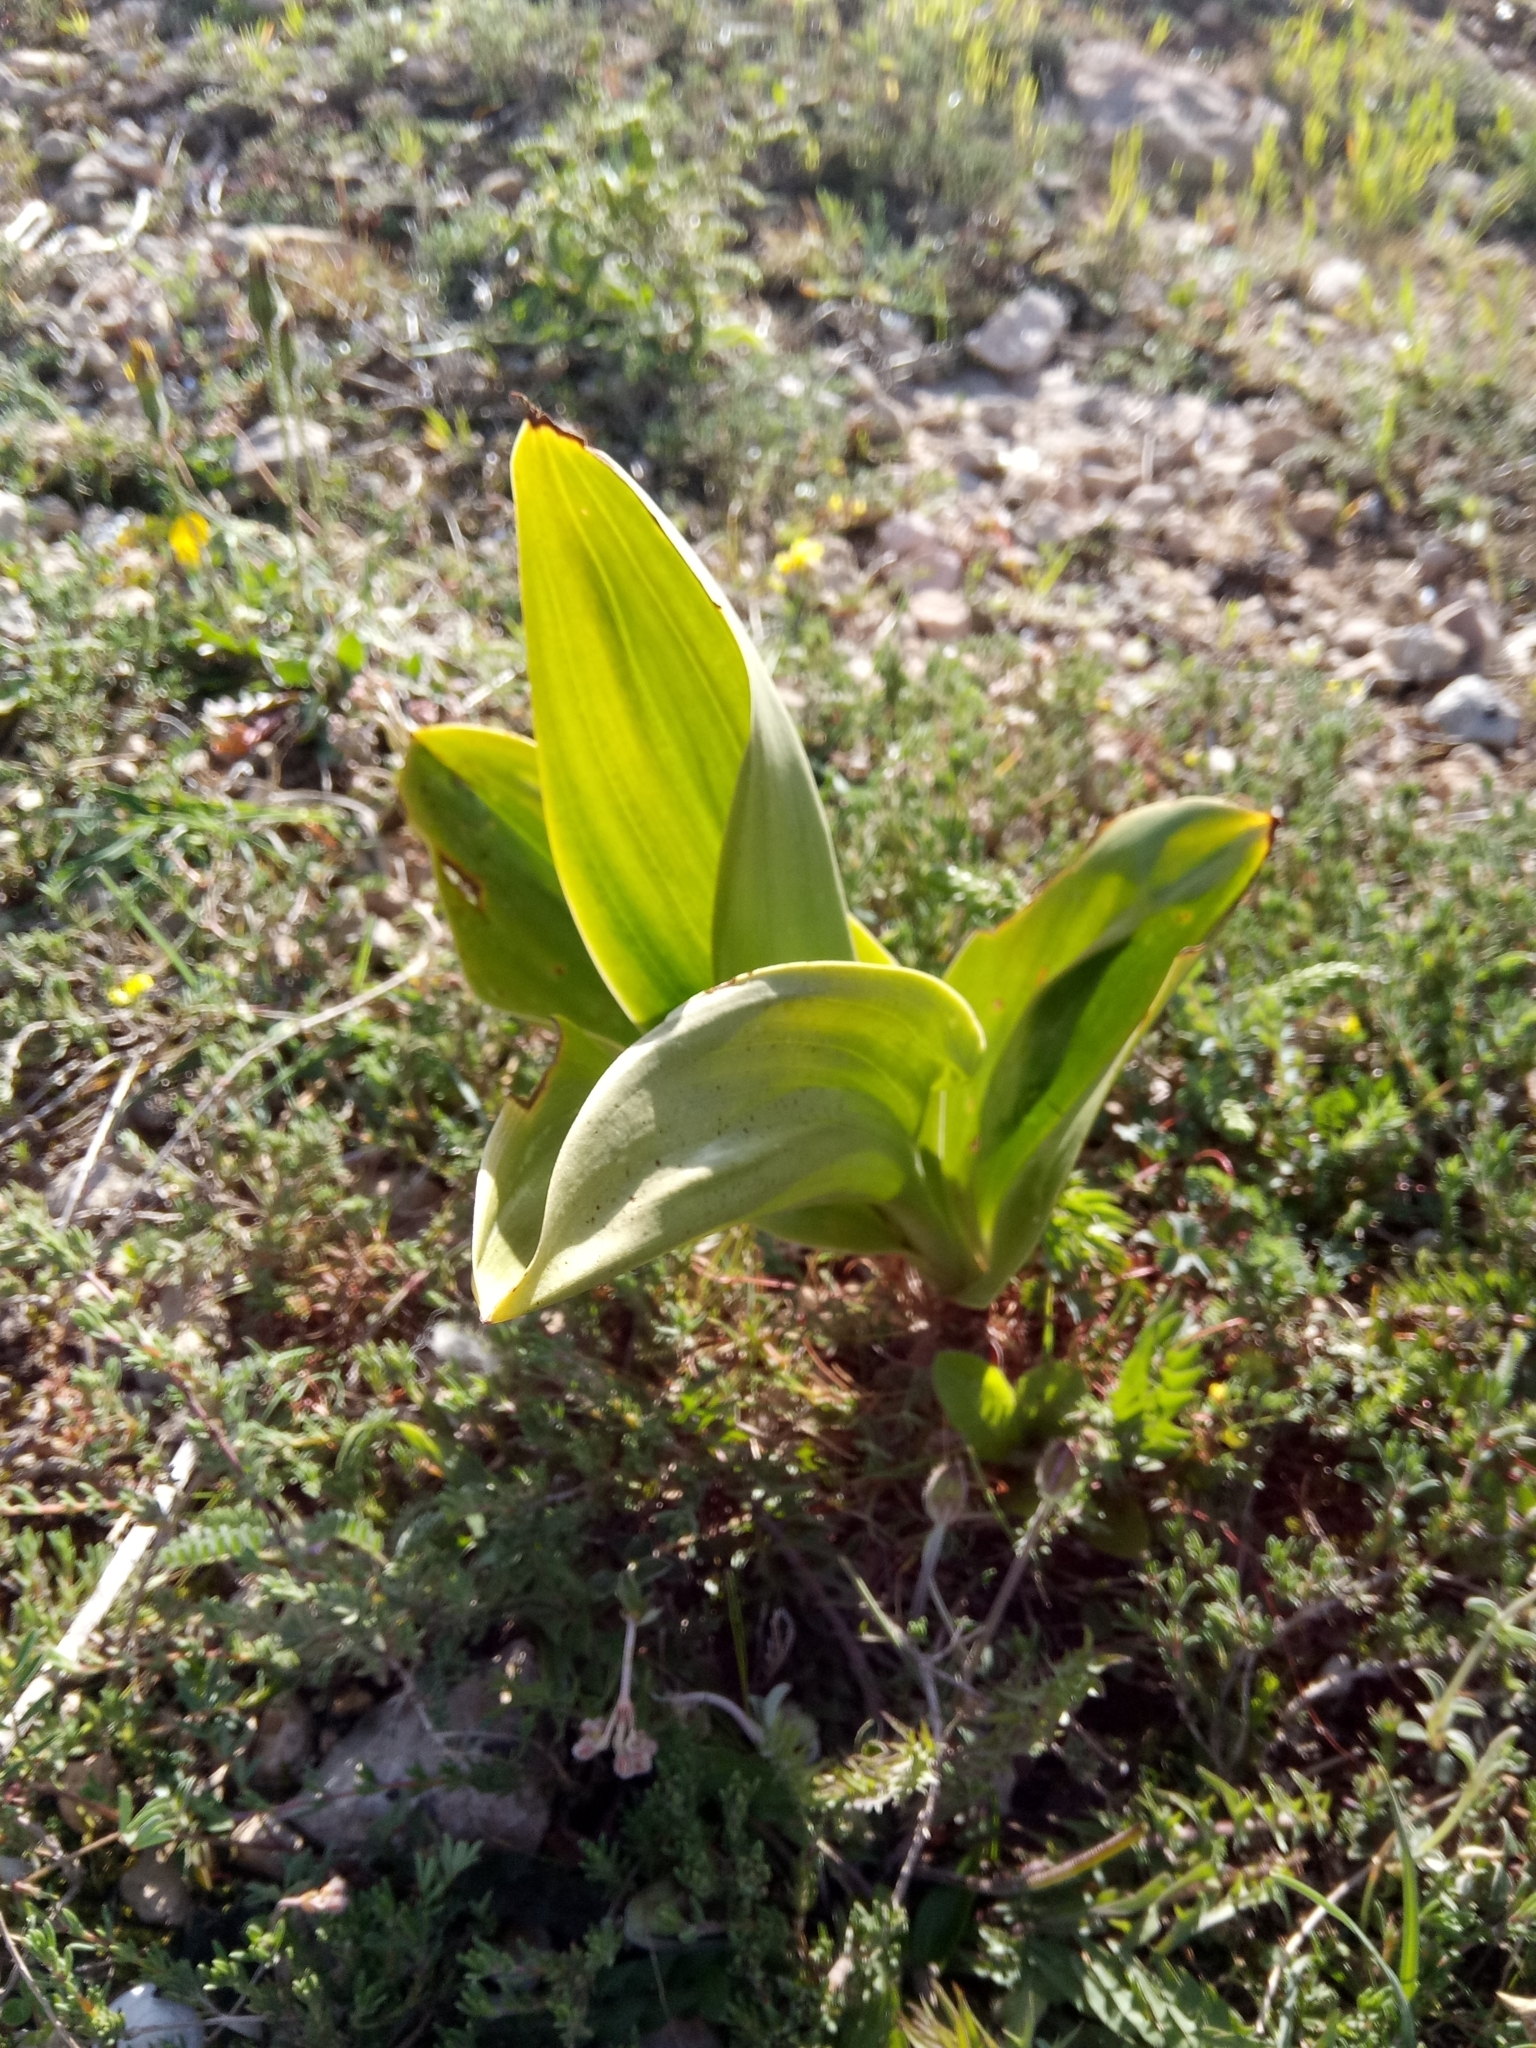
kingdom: Plantae
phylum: Tracheophyta
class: Liliopsida
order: Asparagales
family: Orchidaceae
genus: Himantoglossum
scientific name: Himantoglossum robertianum
